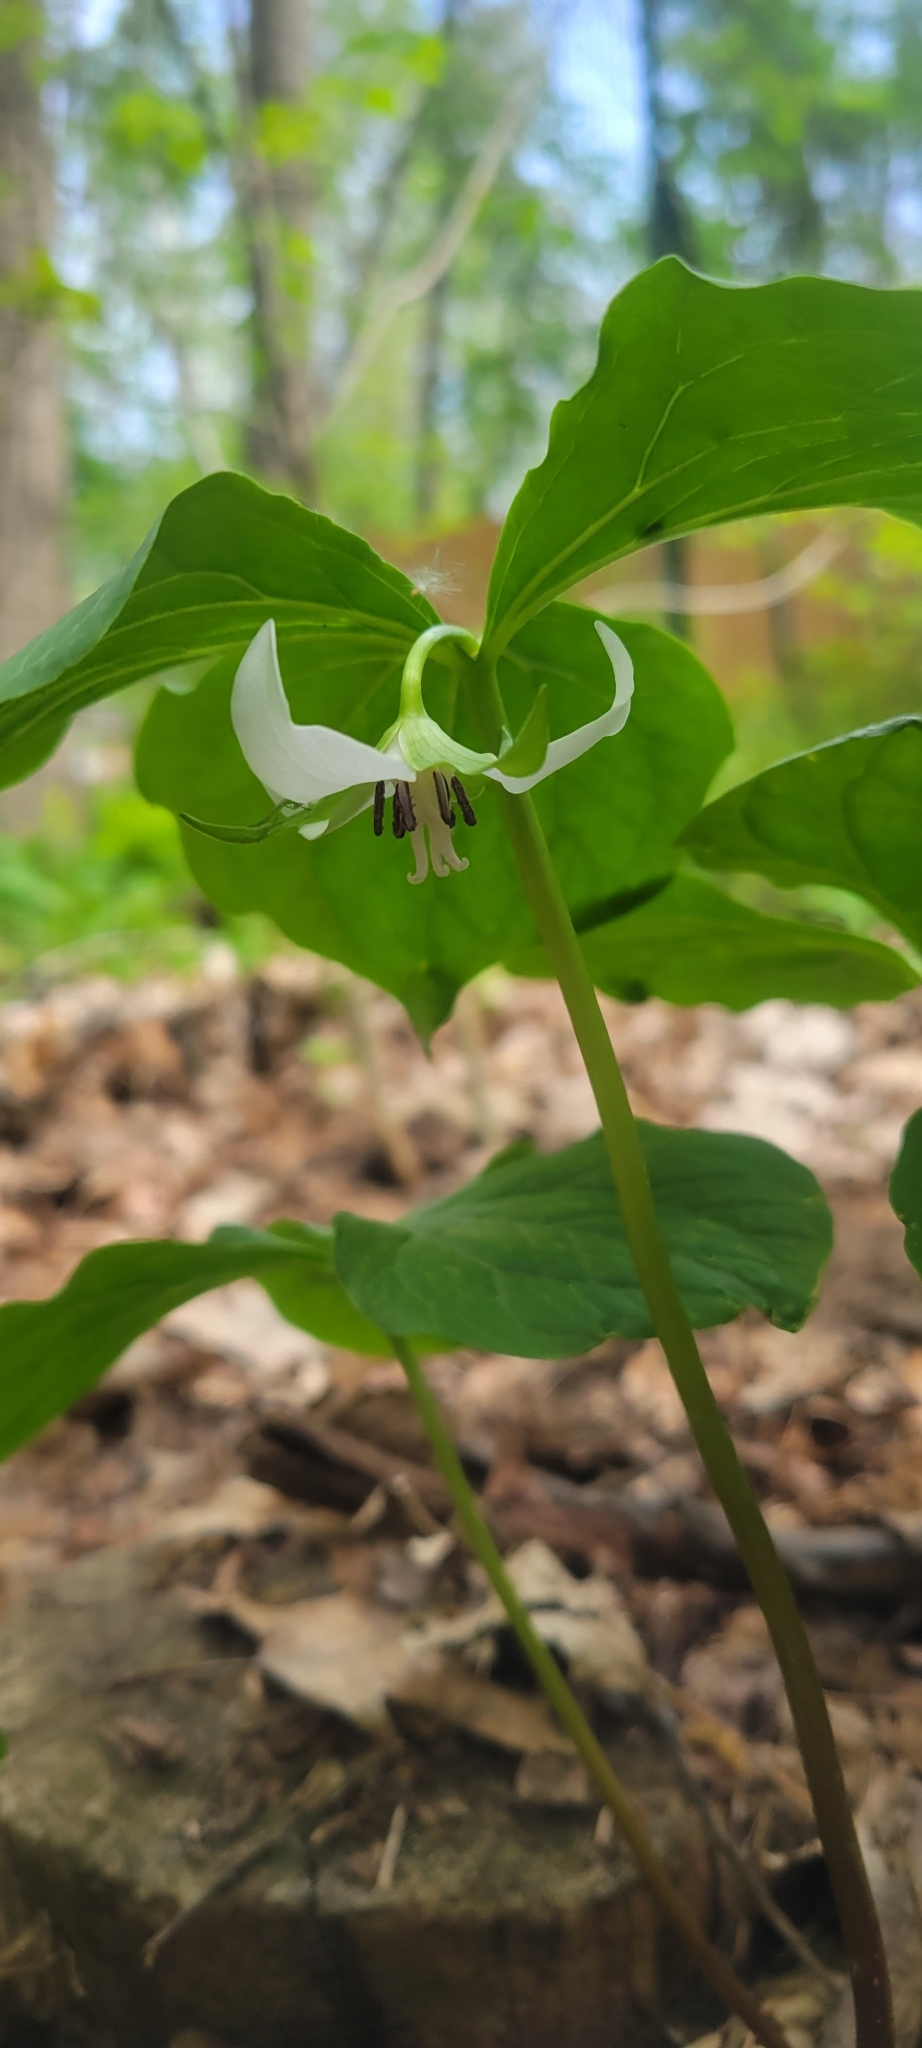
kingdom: Plantae
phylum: Tracheophyta
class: Liliopsida
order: Liliales
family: Melanthiaceae
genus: Trillium
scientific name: Trillium cernuum
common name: Nodding trillium
